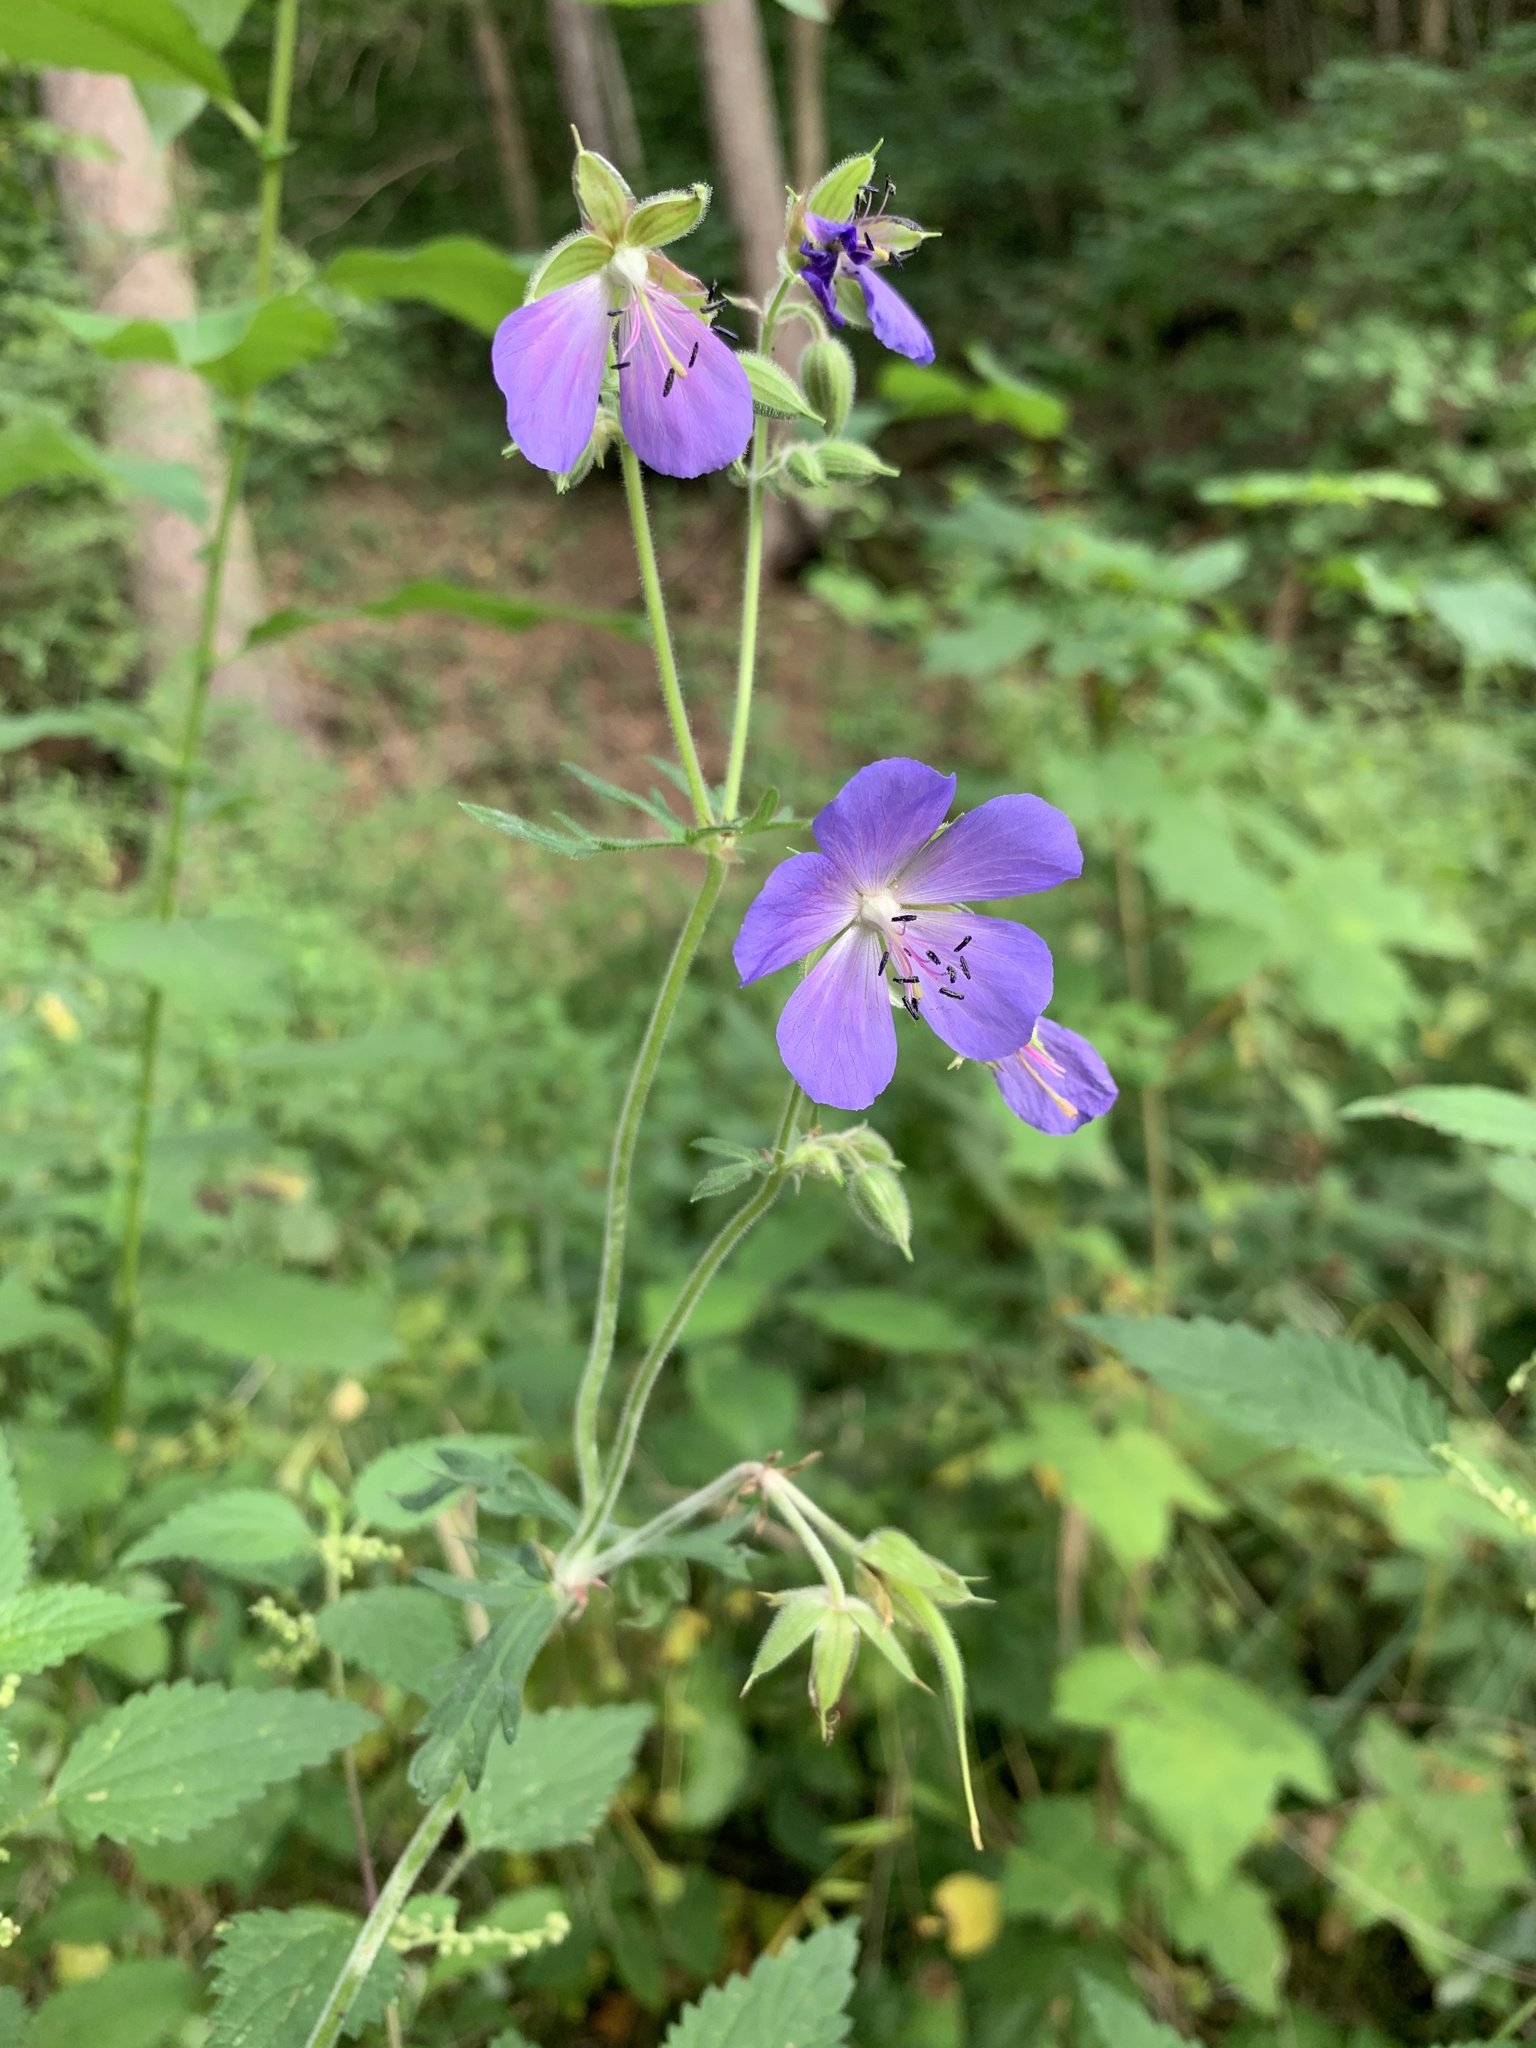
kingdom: Plantae
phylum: Tracheophyta
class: Magnoliopsida
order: Geraniales
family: Geraniaceae
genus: Geranium
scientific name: Geranium pratense
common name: Meadow crane's-bill
